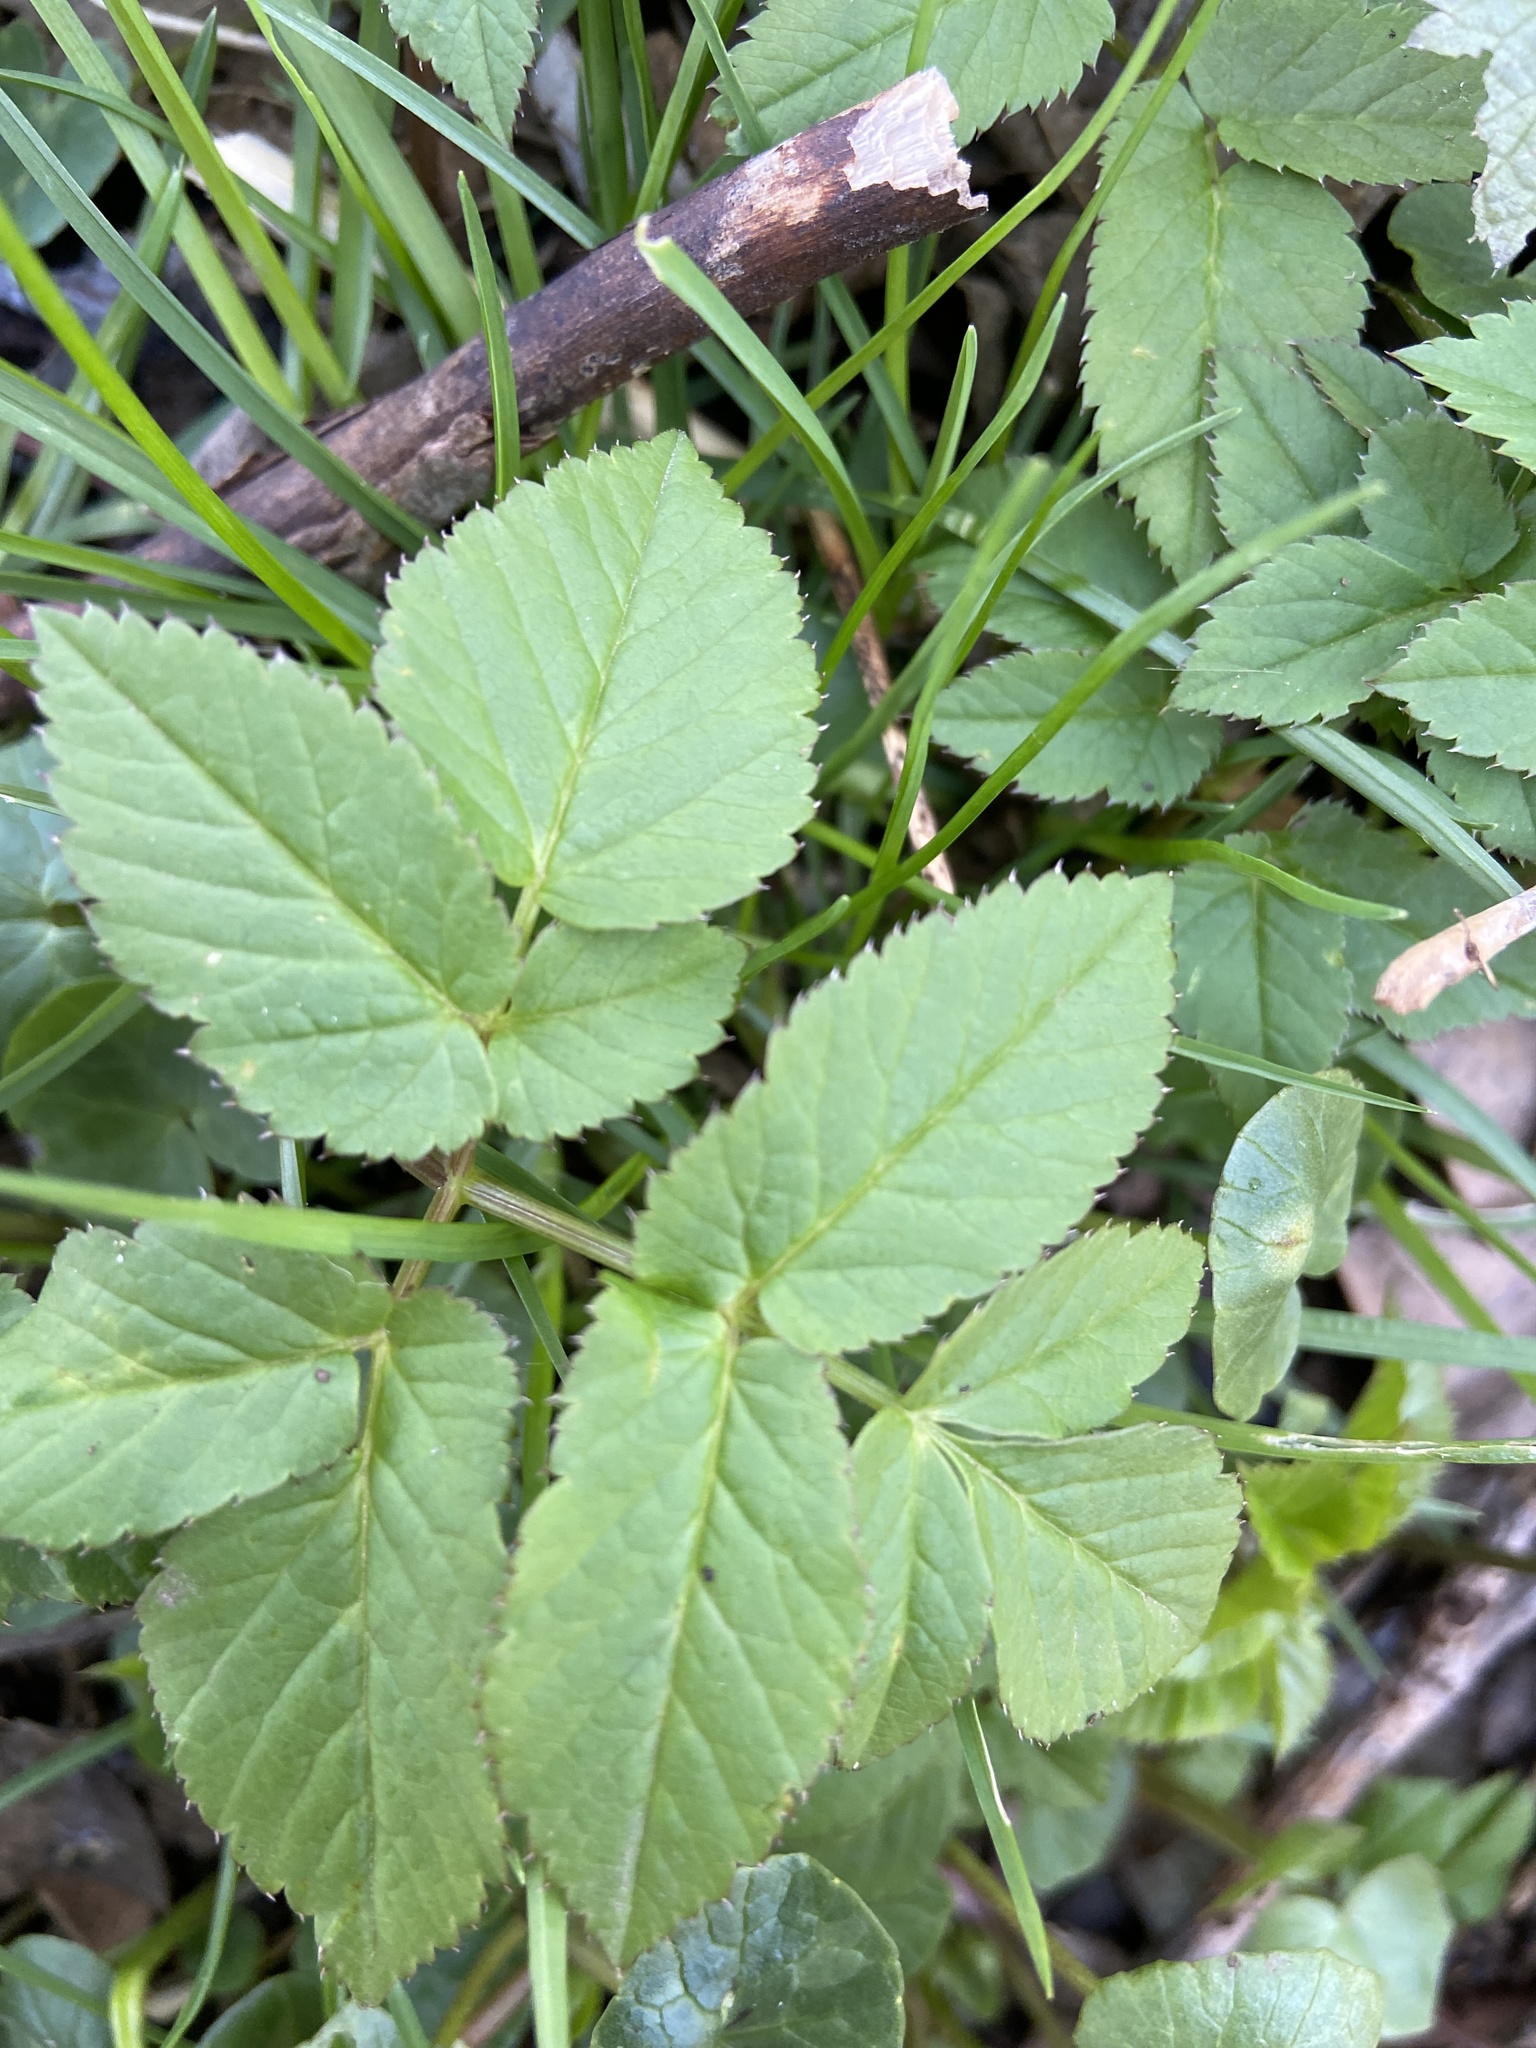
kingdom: Plantae
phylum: Tracheophyta
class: Magnoliopsida
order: Apiales
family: Apiaceae
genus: Aegopodium
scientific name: Aegopodium podagraria
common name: Ground-elder
